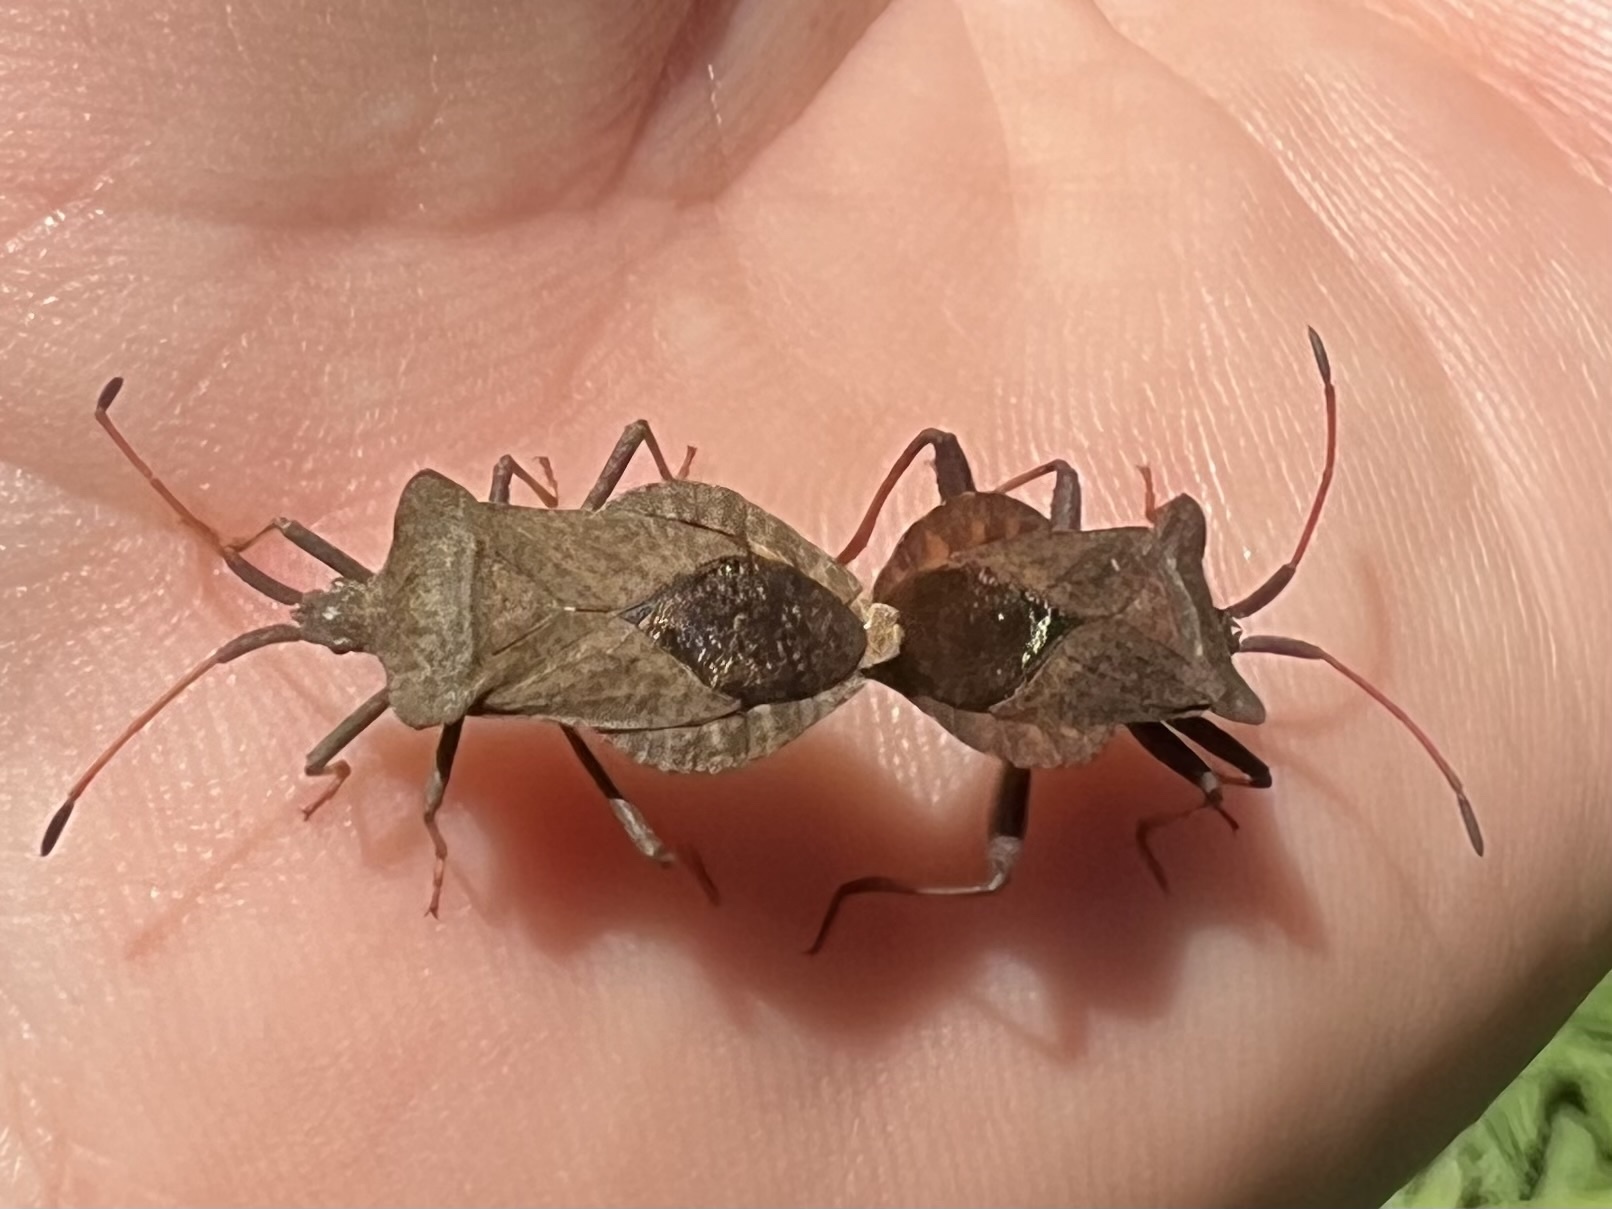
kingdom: Animalia
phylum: Arthropoda
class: Insecta
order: Hemiptera
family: Coreidae
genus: Coreus
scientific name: Coreus marginatus
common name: Dock bug
